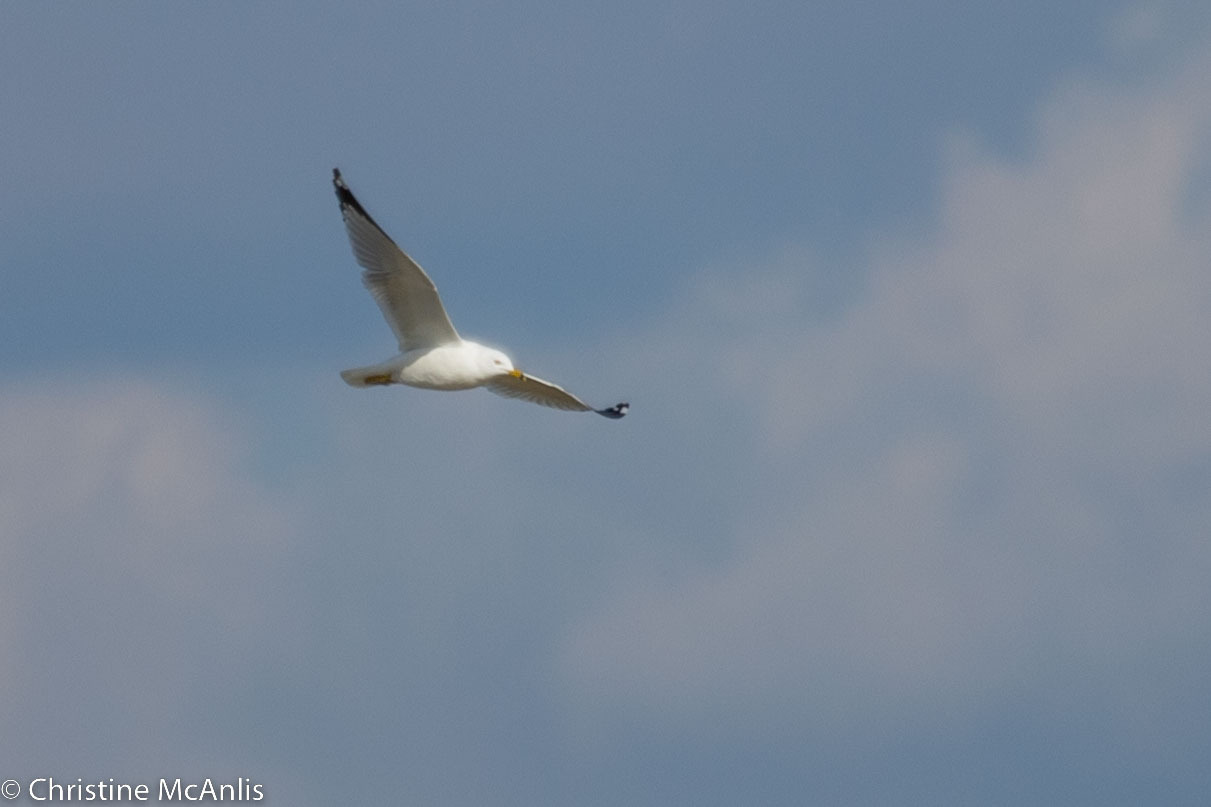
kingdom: Animalia
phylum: Chordata
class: Aves
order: Charadriiformes
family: Laridae
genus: Larus
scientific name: Larus delawarensis
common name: Ring-billed gull
